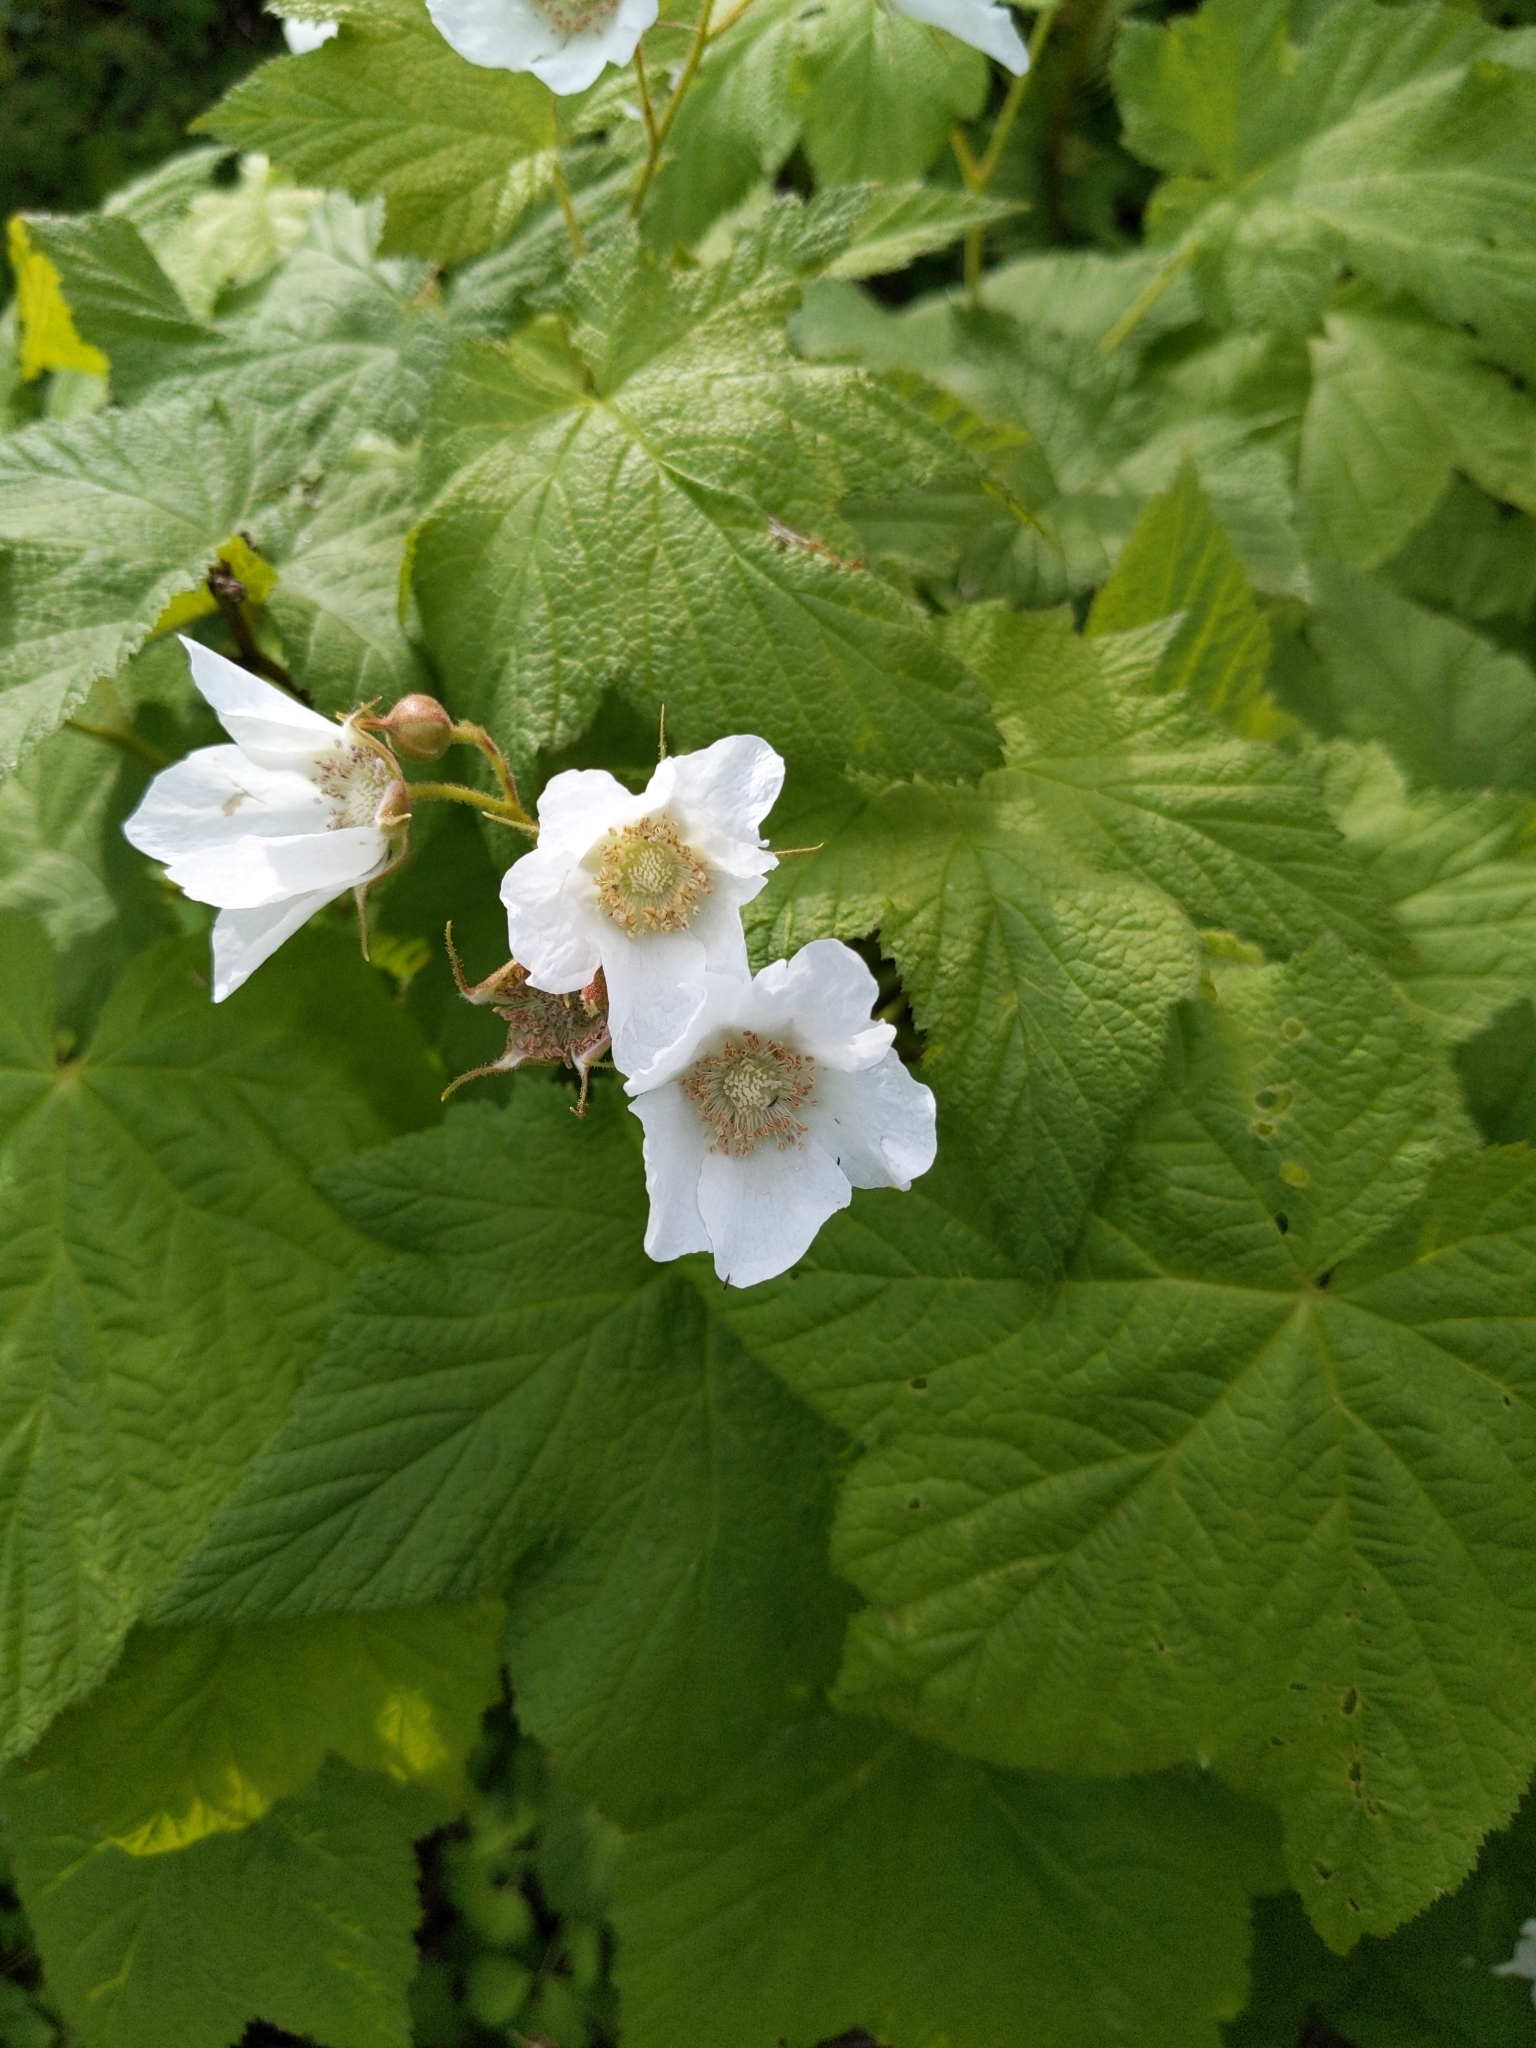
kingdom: Plantae
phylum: Tracheophyta
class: Magnoliopsida
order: Rosales
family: Rosaceae
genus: Rubus
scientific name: Rubus parviflorus
